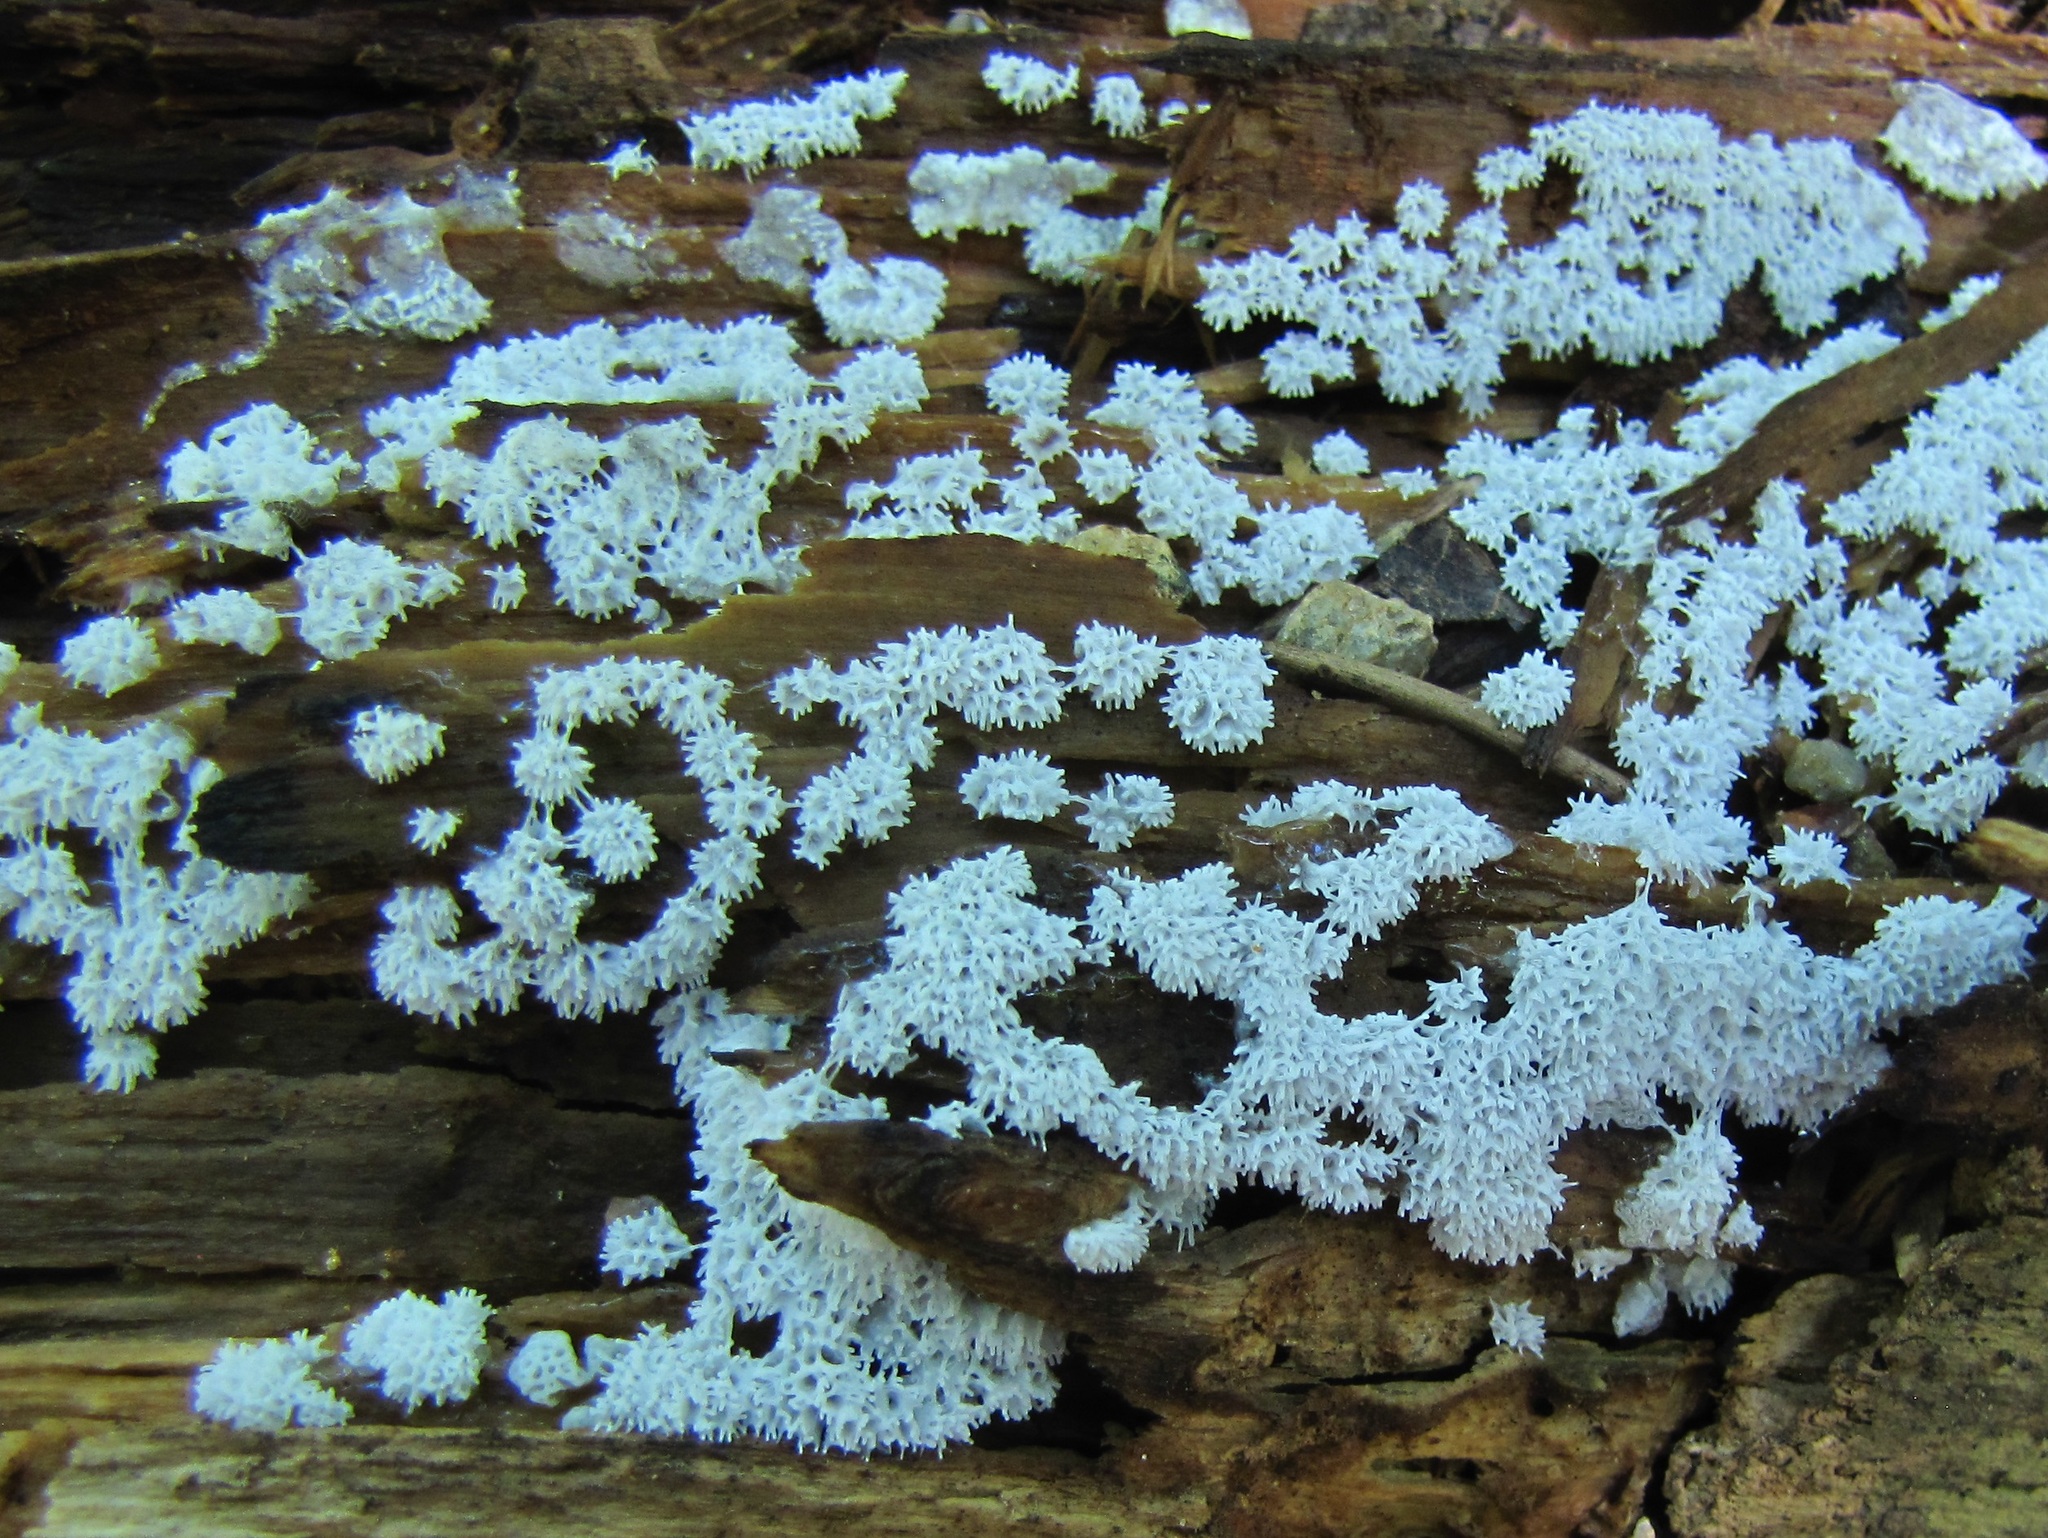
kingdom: Protozoa
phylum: Mycetozoa
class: Protosteliomycetes
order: Ceratiomyxales
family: Ceratiomyxaceae
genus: Ceratiomyxa
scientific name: Ceratiomyxa fruticulosa
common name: Honeycomb coral slime mold
